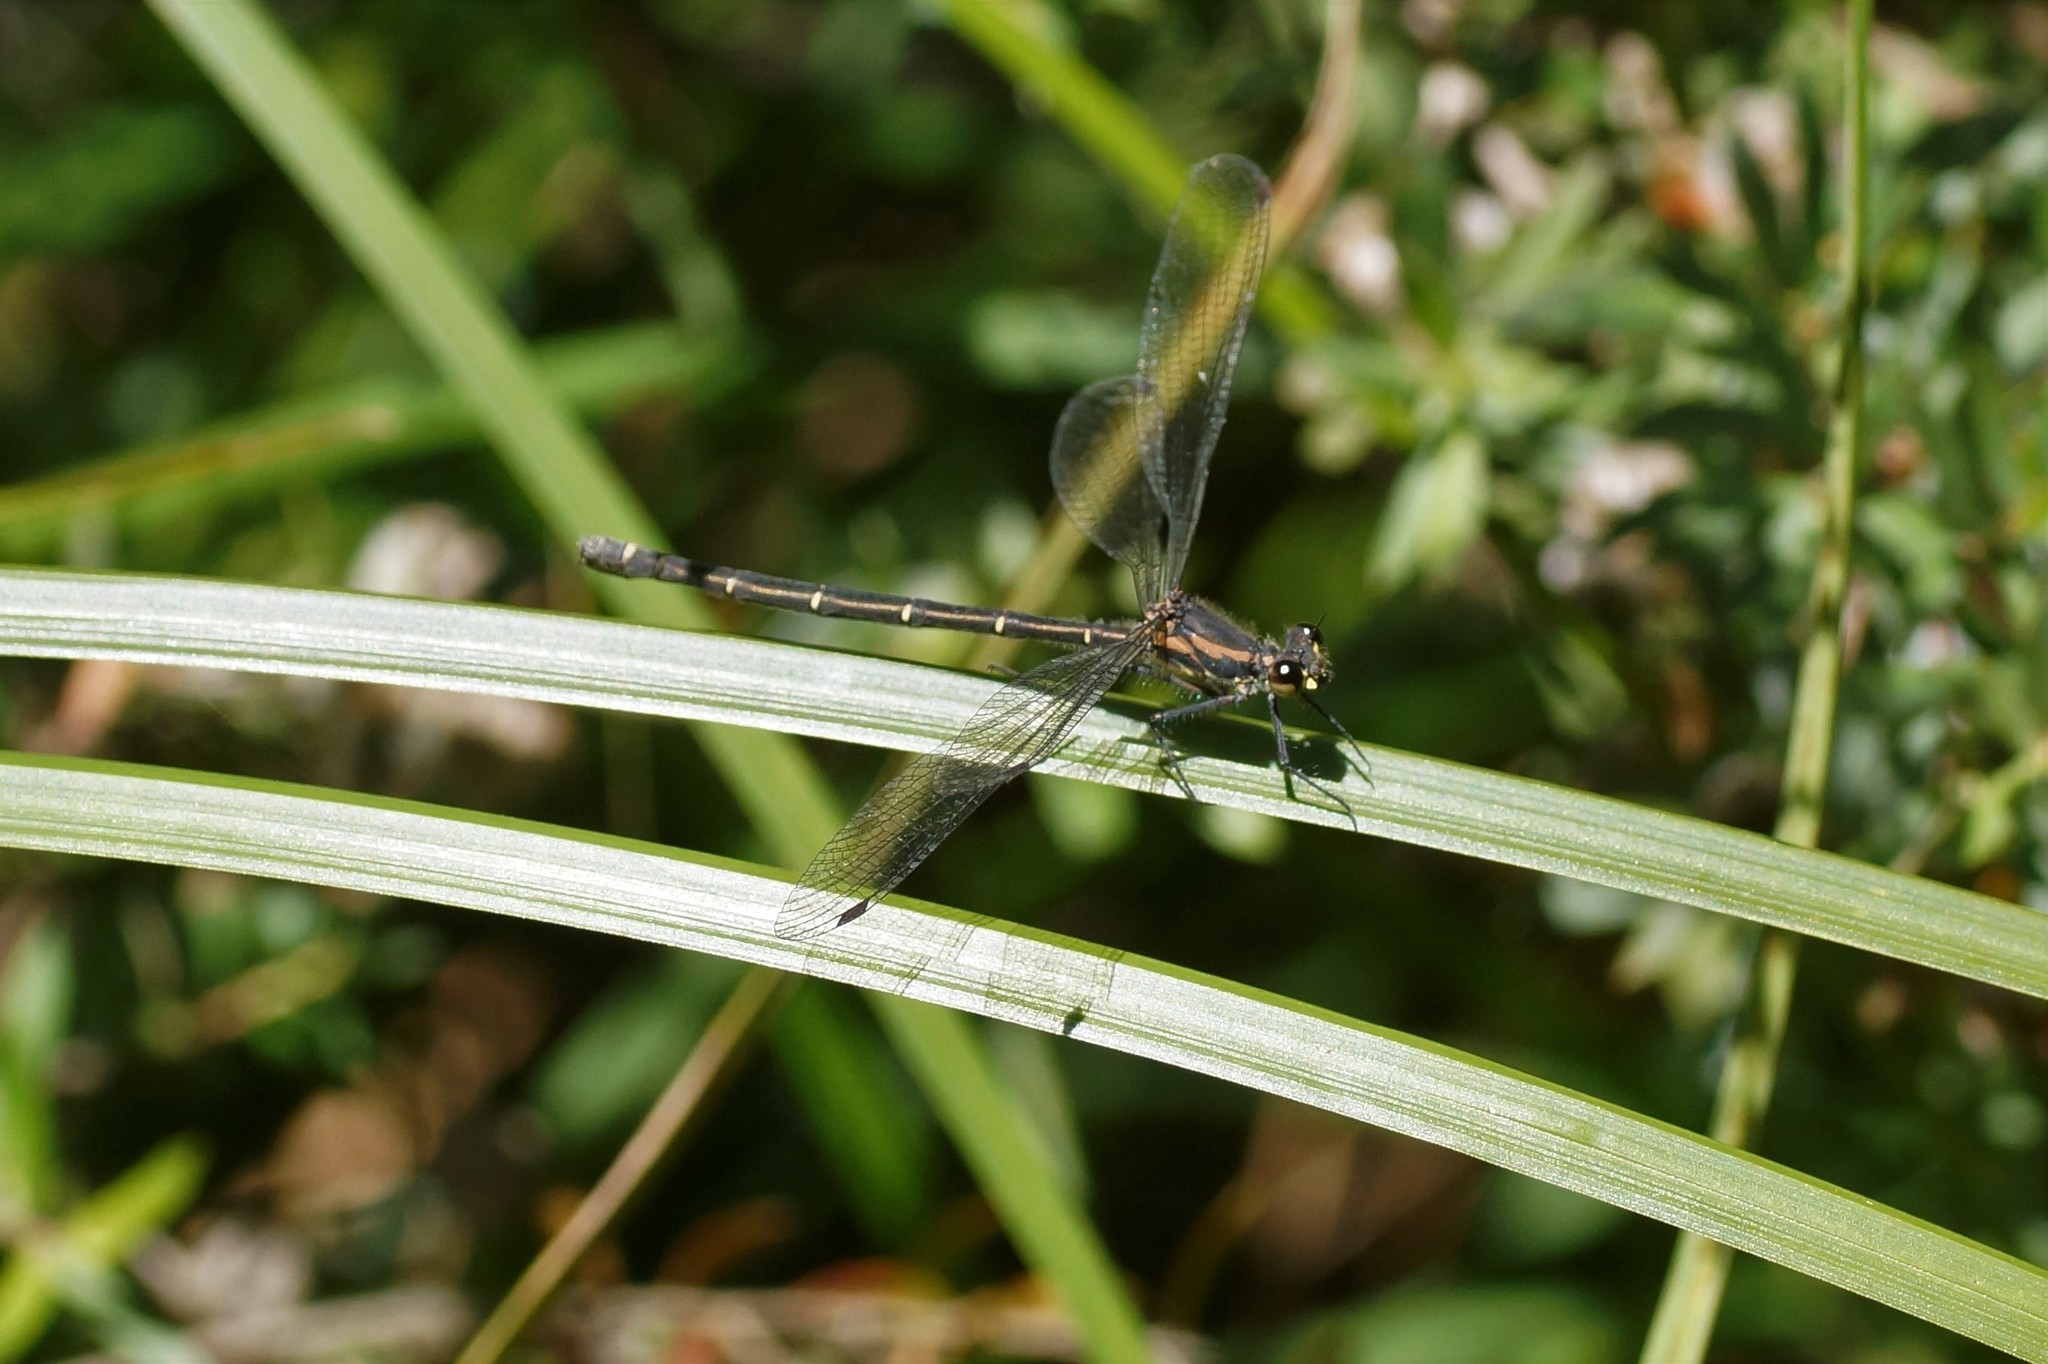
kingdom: Animalia
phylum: Arthropoda
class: Insecta
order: Odonata
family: Argiolestidae
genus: Austroargiolestes
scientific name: Austroargiolestes icteromelas
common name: Common flatwing
